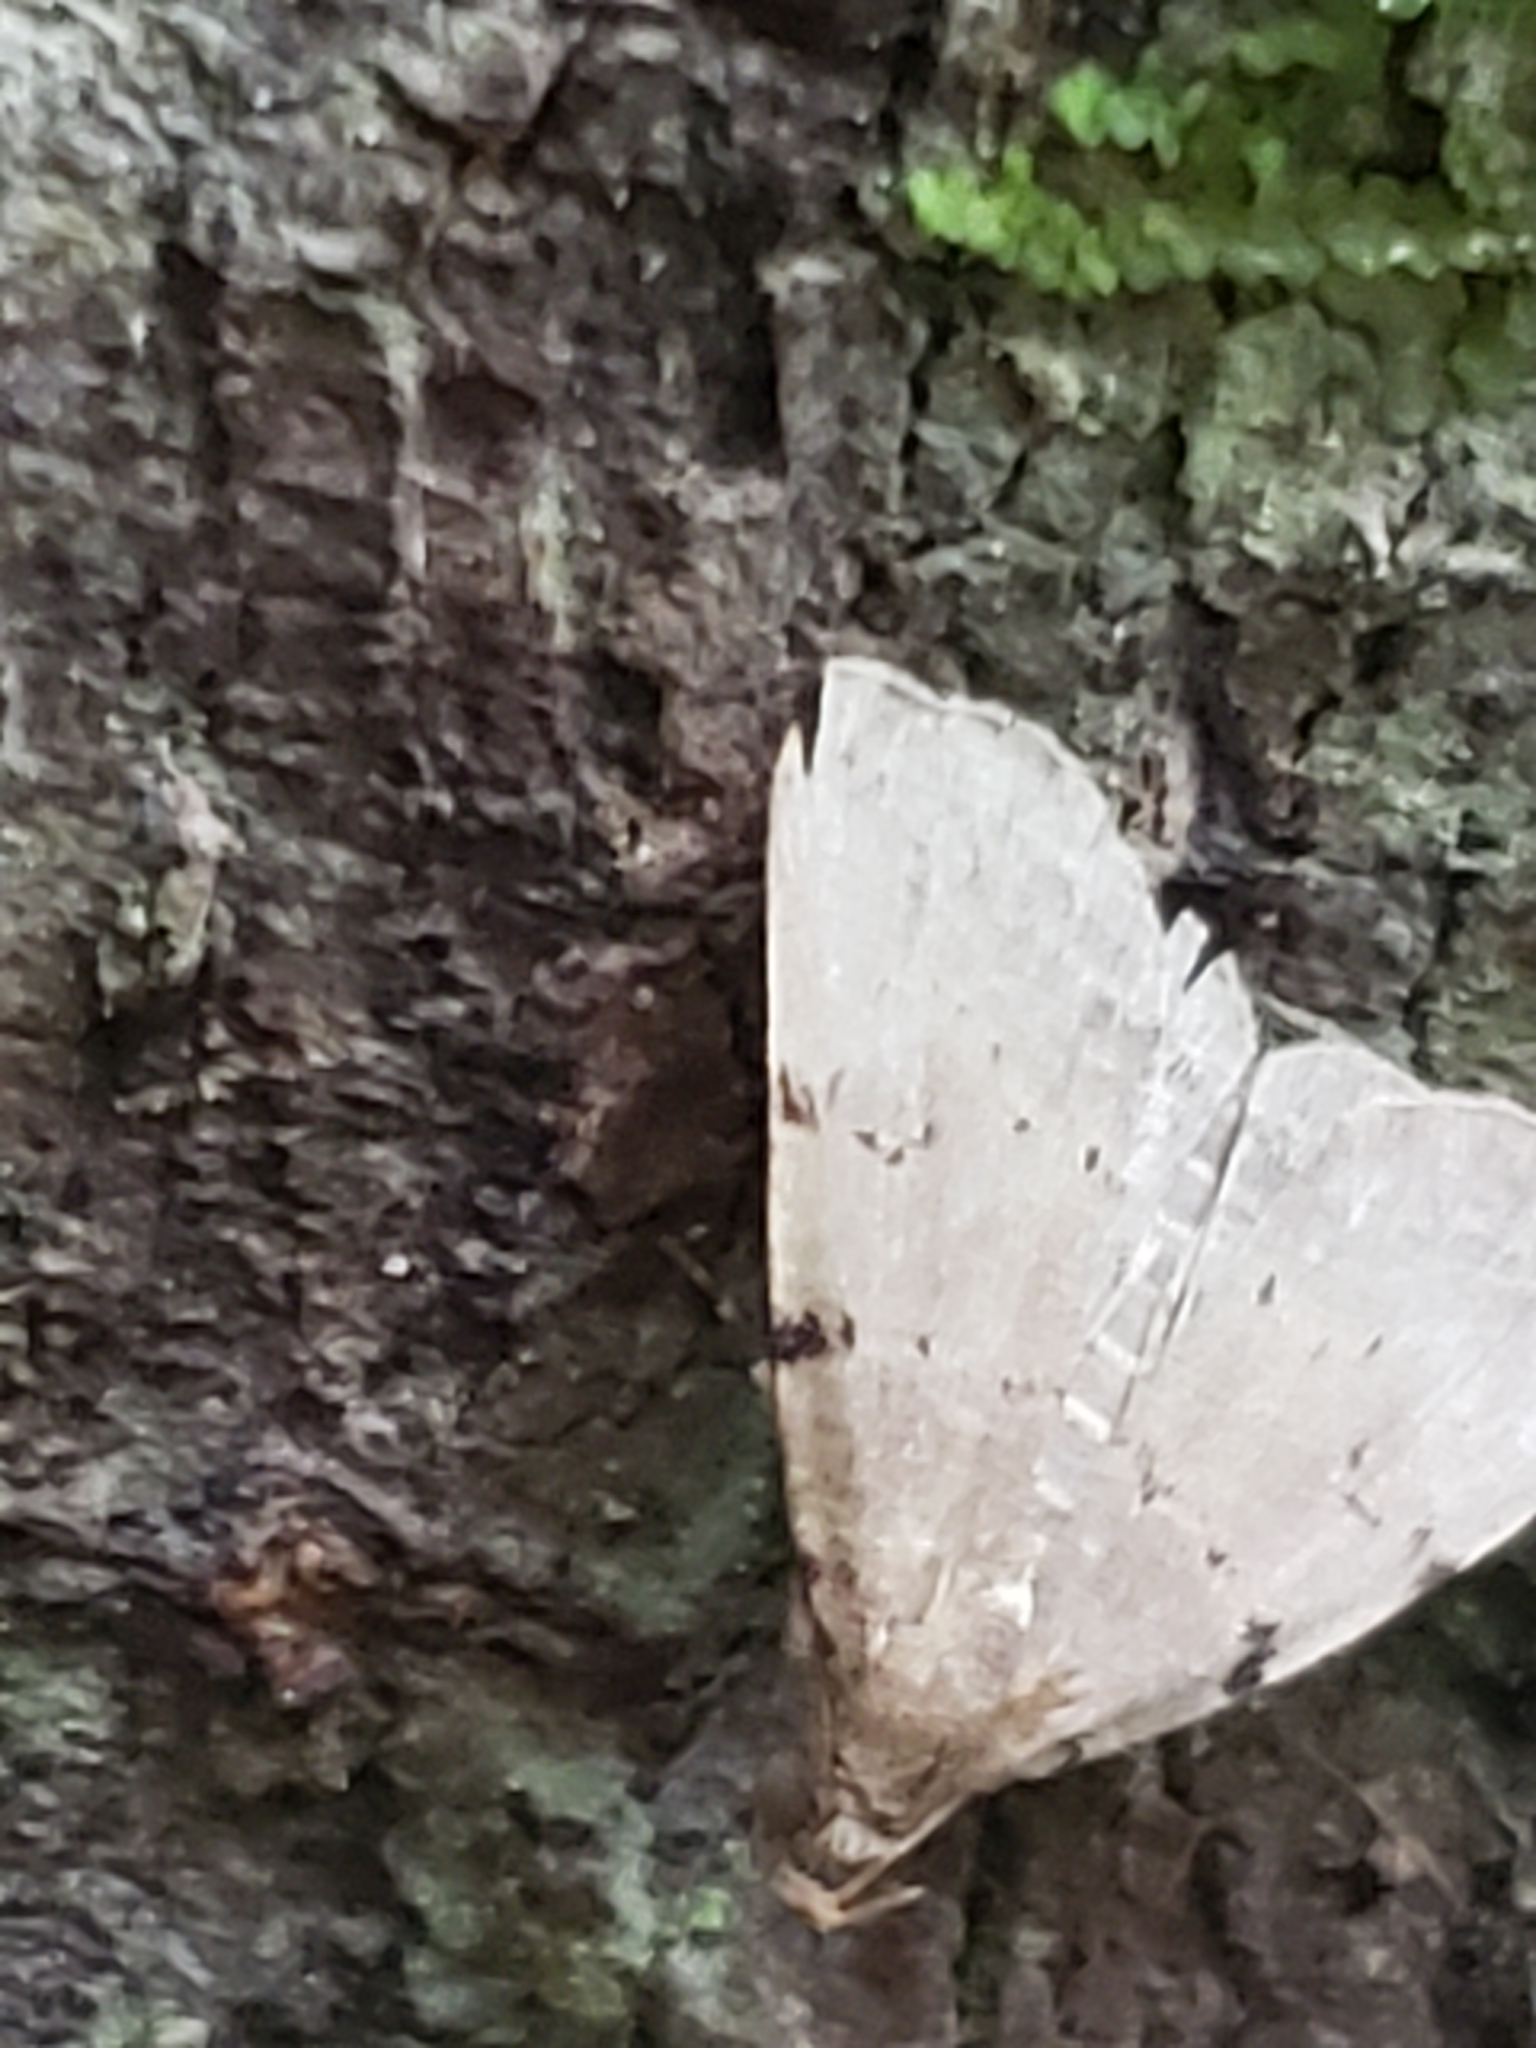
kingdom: Animalia
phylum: Arthropoda
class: Insecta
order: Lepidoptera
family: Erebidae
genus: Zanclognatha
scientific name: Zanclognatha lituralis
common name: Lettered fan-foot
